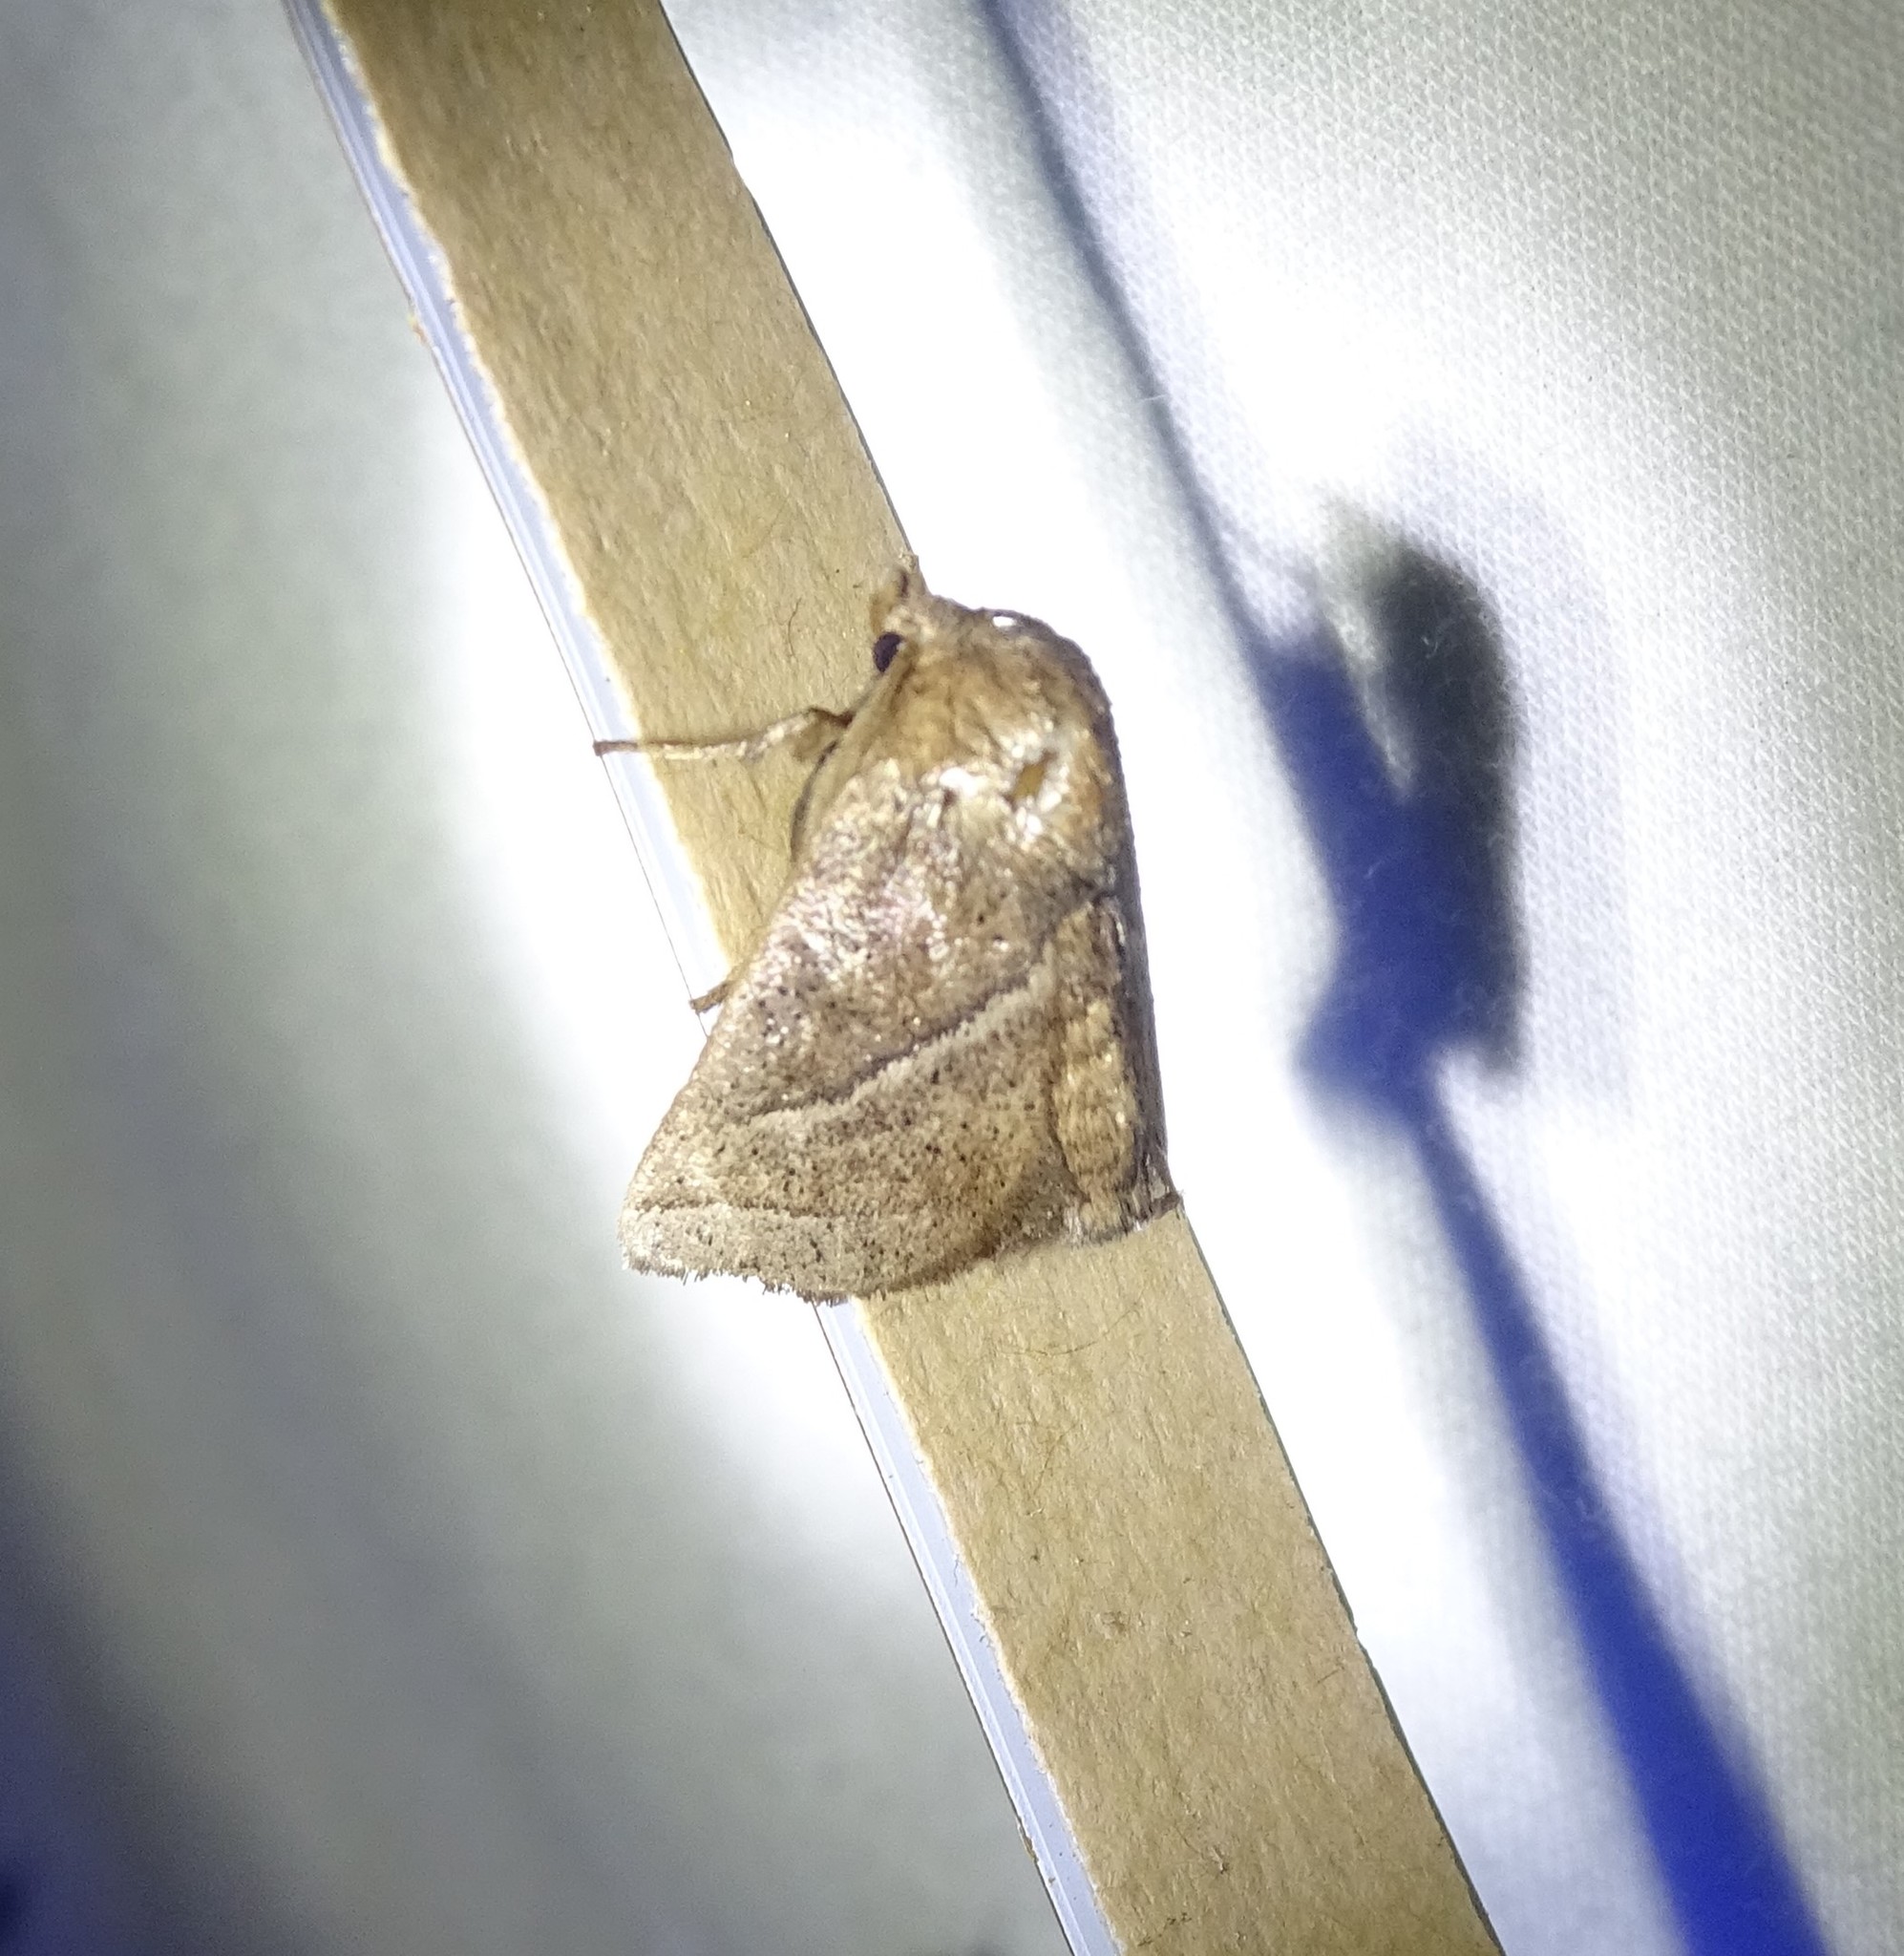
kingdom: Animalia
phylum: Arthropoda
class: Insecta
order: Lepidoptera
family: Limacodidae
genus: Natada
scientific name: Natada nasoni
